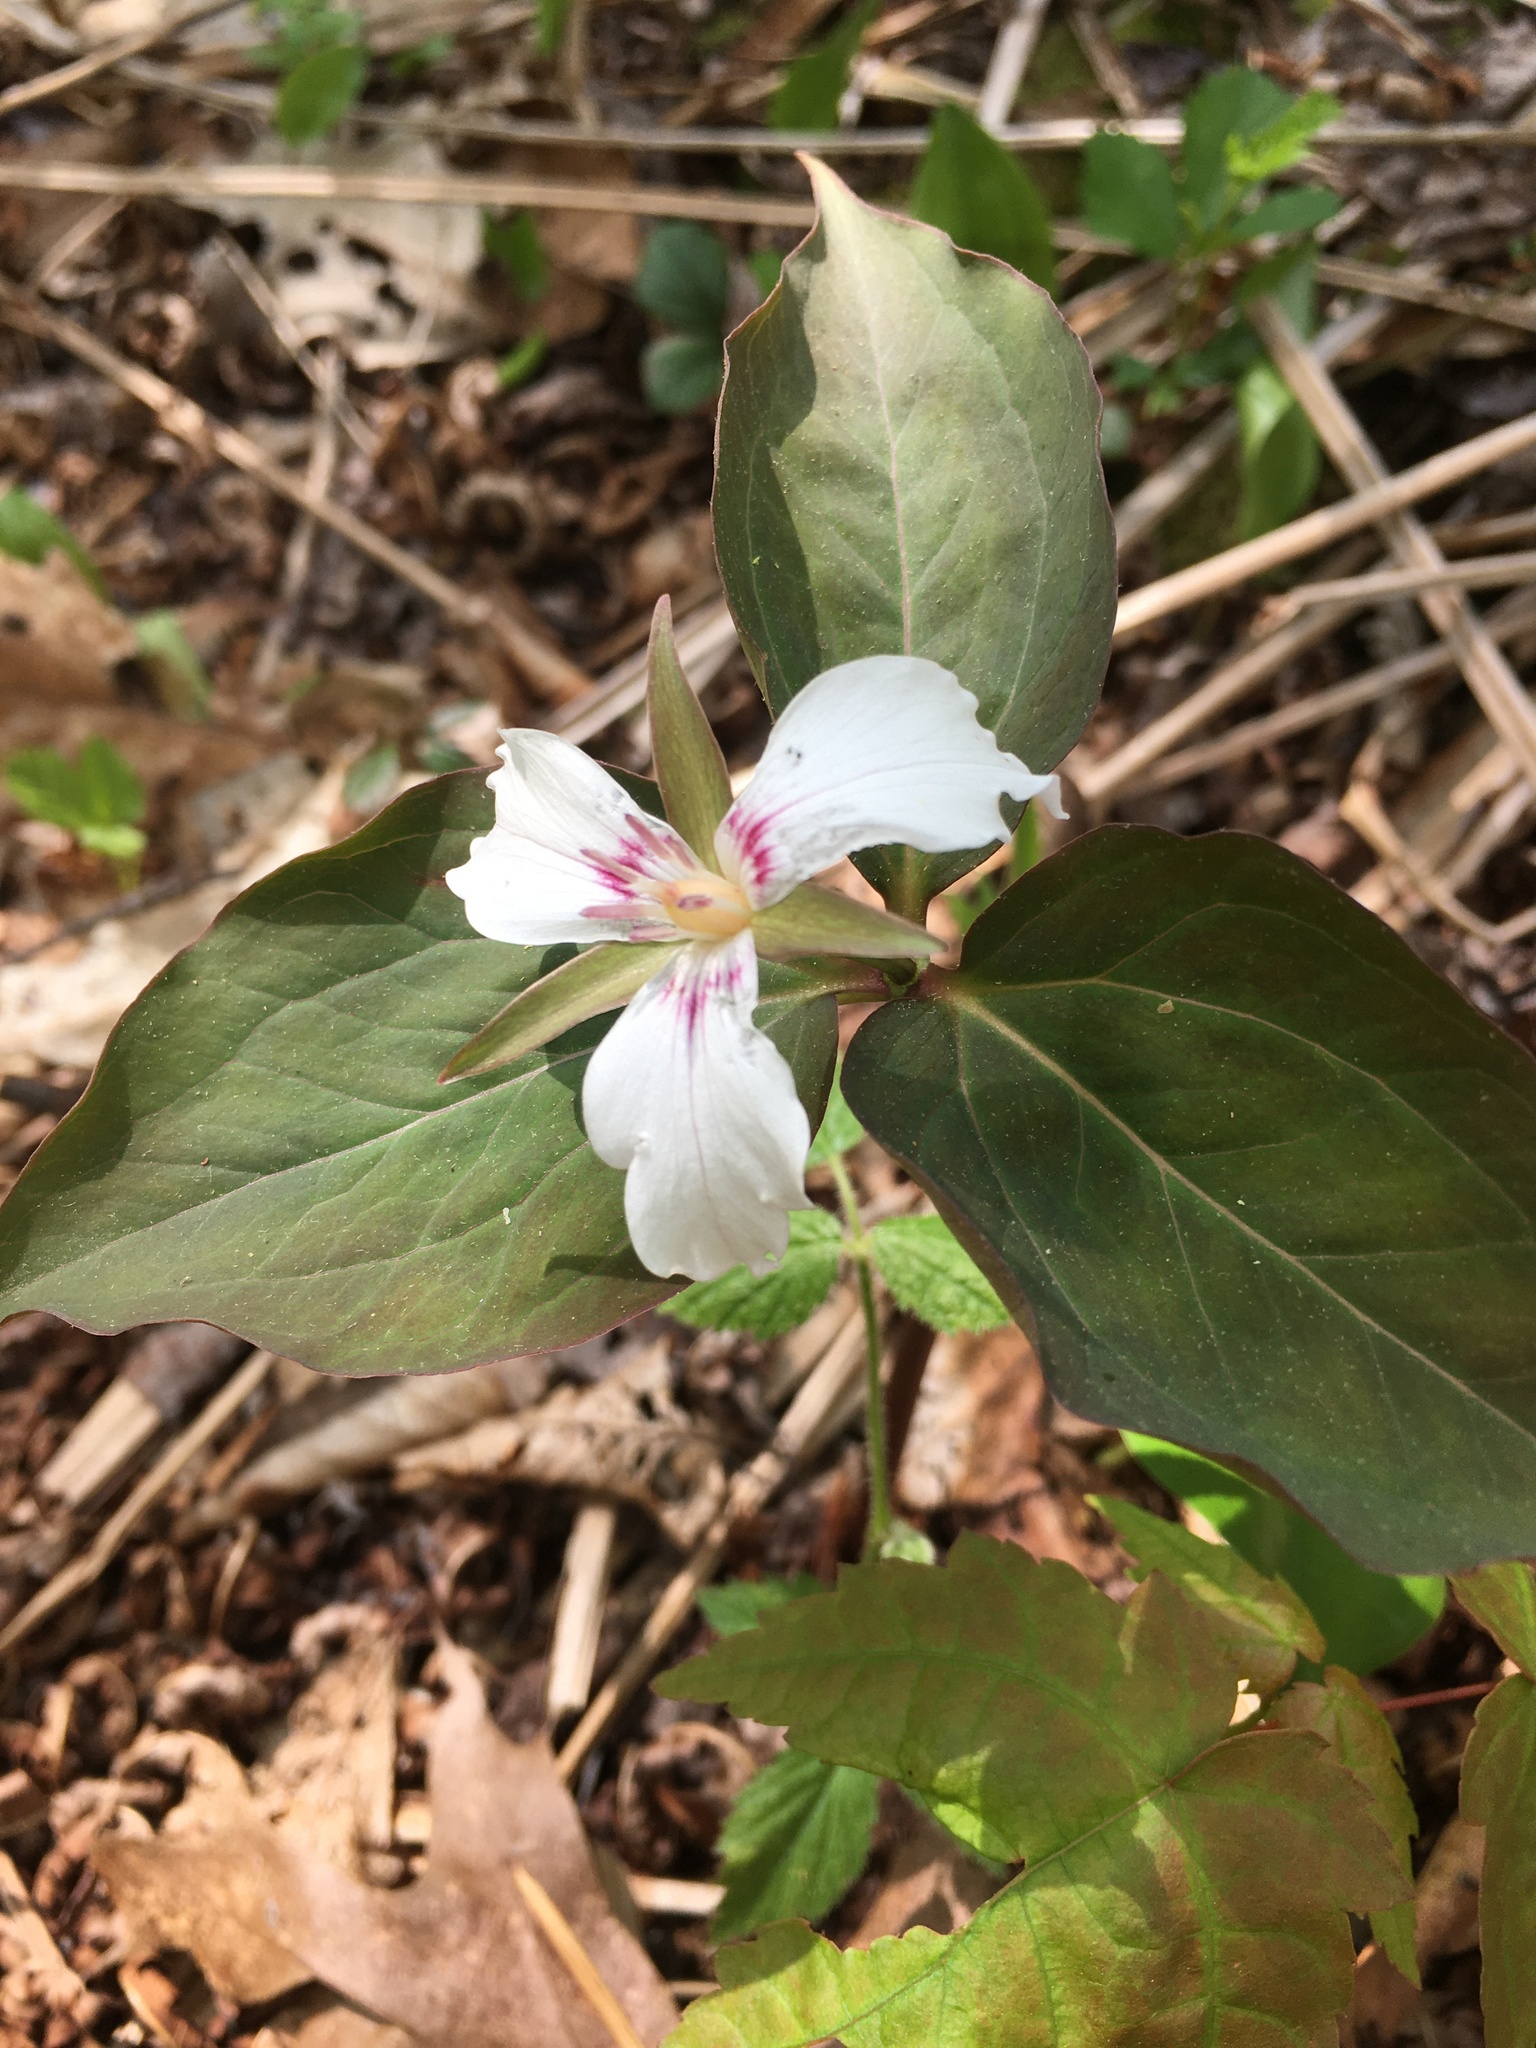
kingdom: Plantae
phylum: Tracheophyta
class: Liliopsida
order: Liliales
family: Melanthiaceae
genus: Trillium
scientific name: Trillium undulatum
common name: Paint trillium
